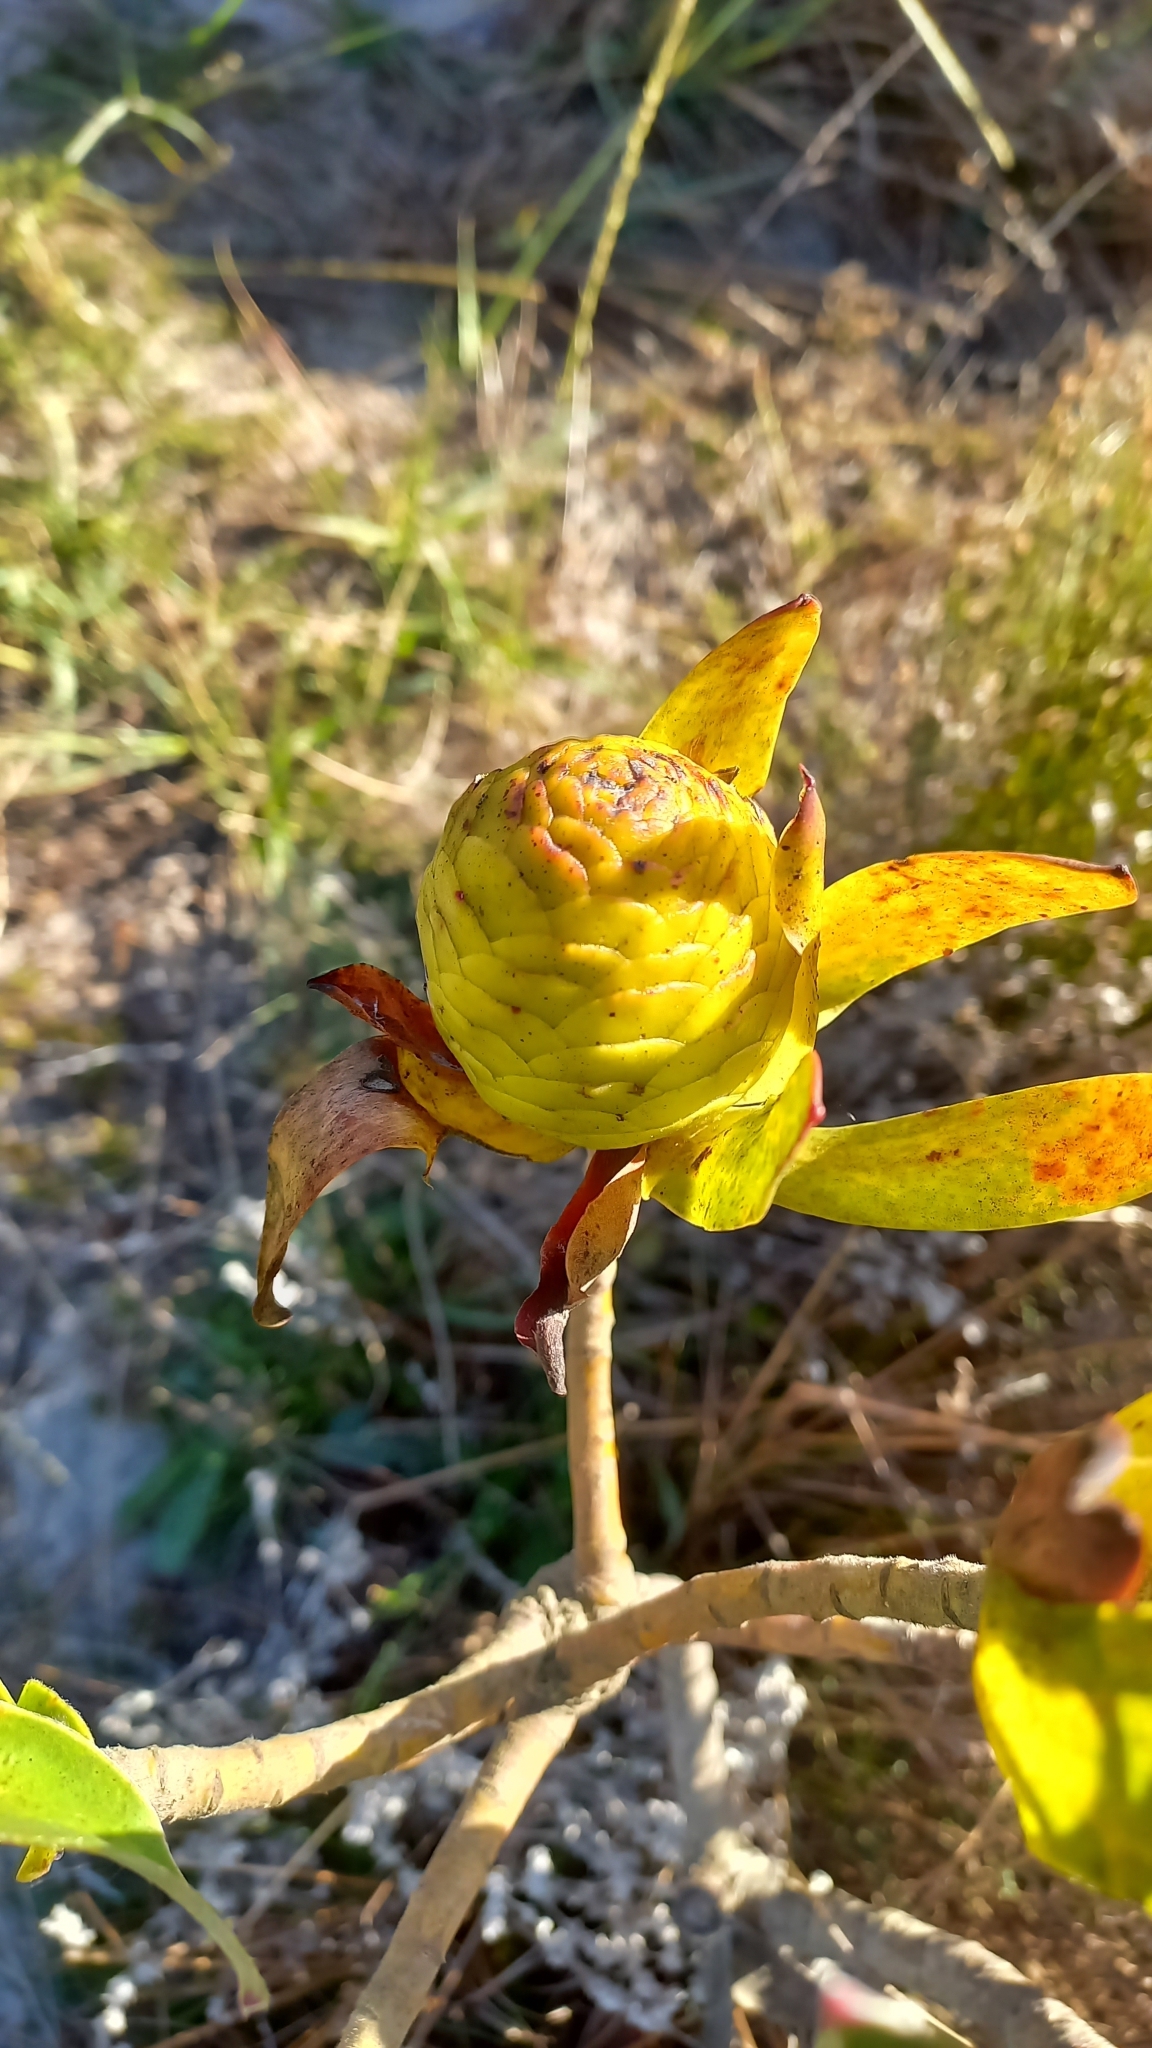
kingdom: Plantae
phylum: Tracheophyta
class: Magnoliopsida
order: Proteales
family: Proteaceae
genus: Leucadendron
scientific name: Leucadendron laureolum
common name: Golden sunshinebush
